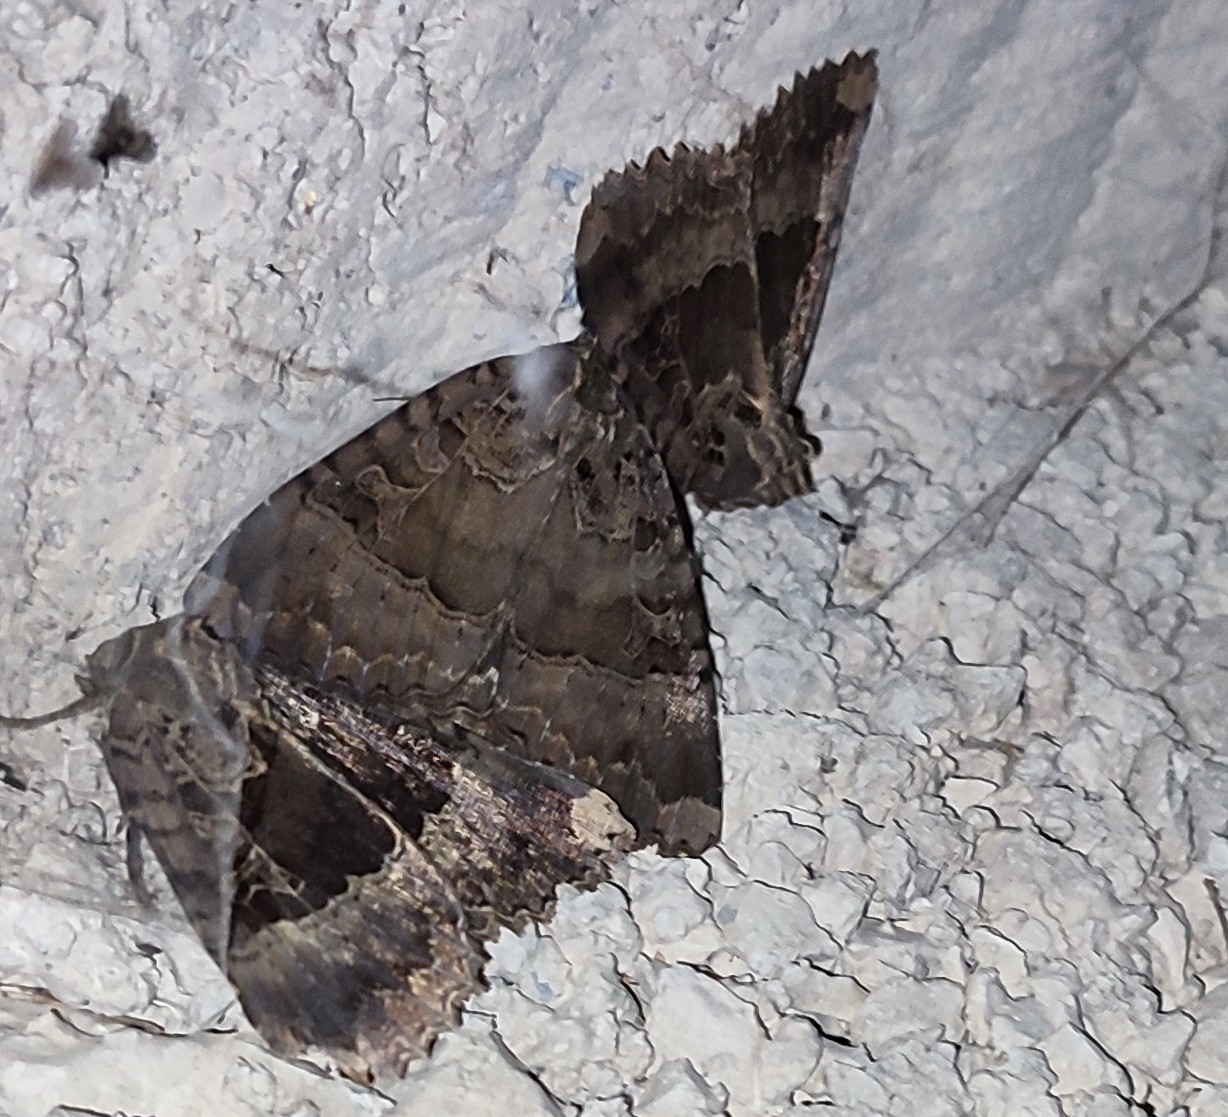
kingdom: Animalia
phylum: Arthropoda
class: Insecta
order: Lepidoptera
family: Noctuidae
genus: Mormo
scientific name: Mormo maura
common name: Old lady
